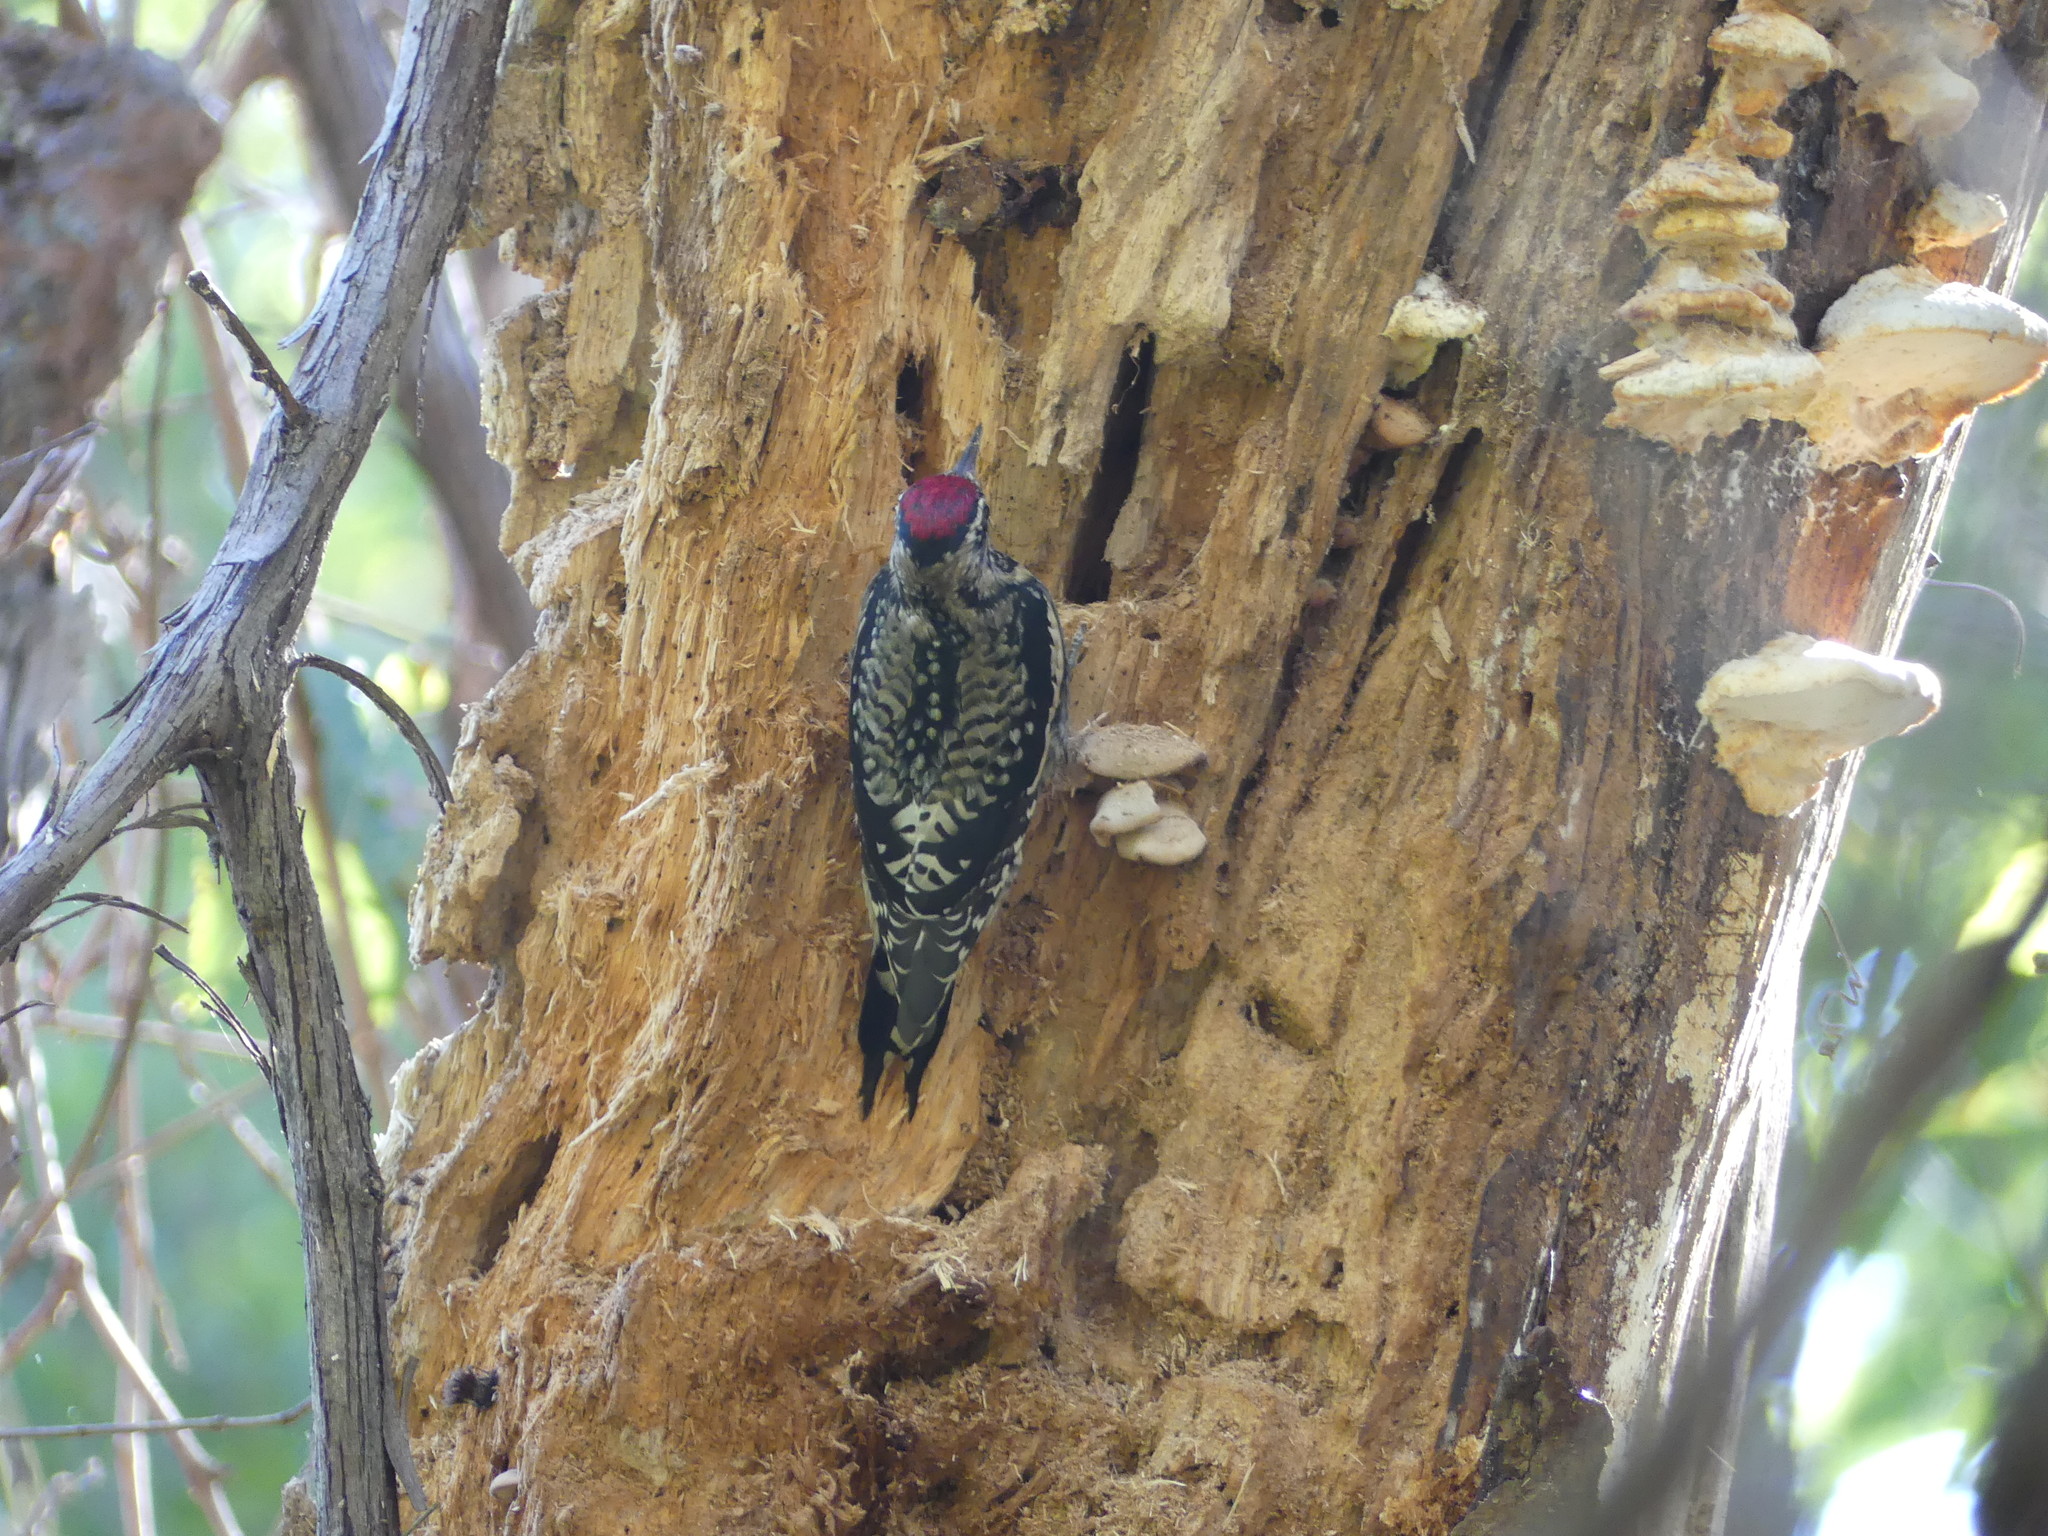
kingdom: Animalia
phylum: Chordata
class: Aves
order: Piciformes
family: Picidae
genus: Sphyrapicus
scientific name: Sphyrapicus varius
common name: Yellow-bellied sapsucker
